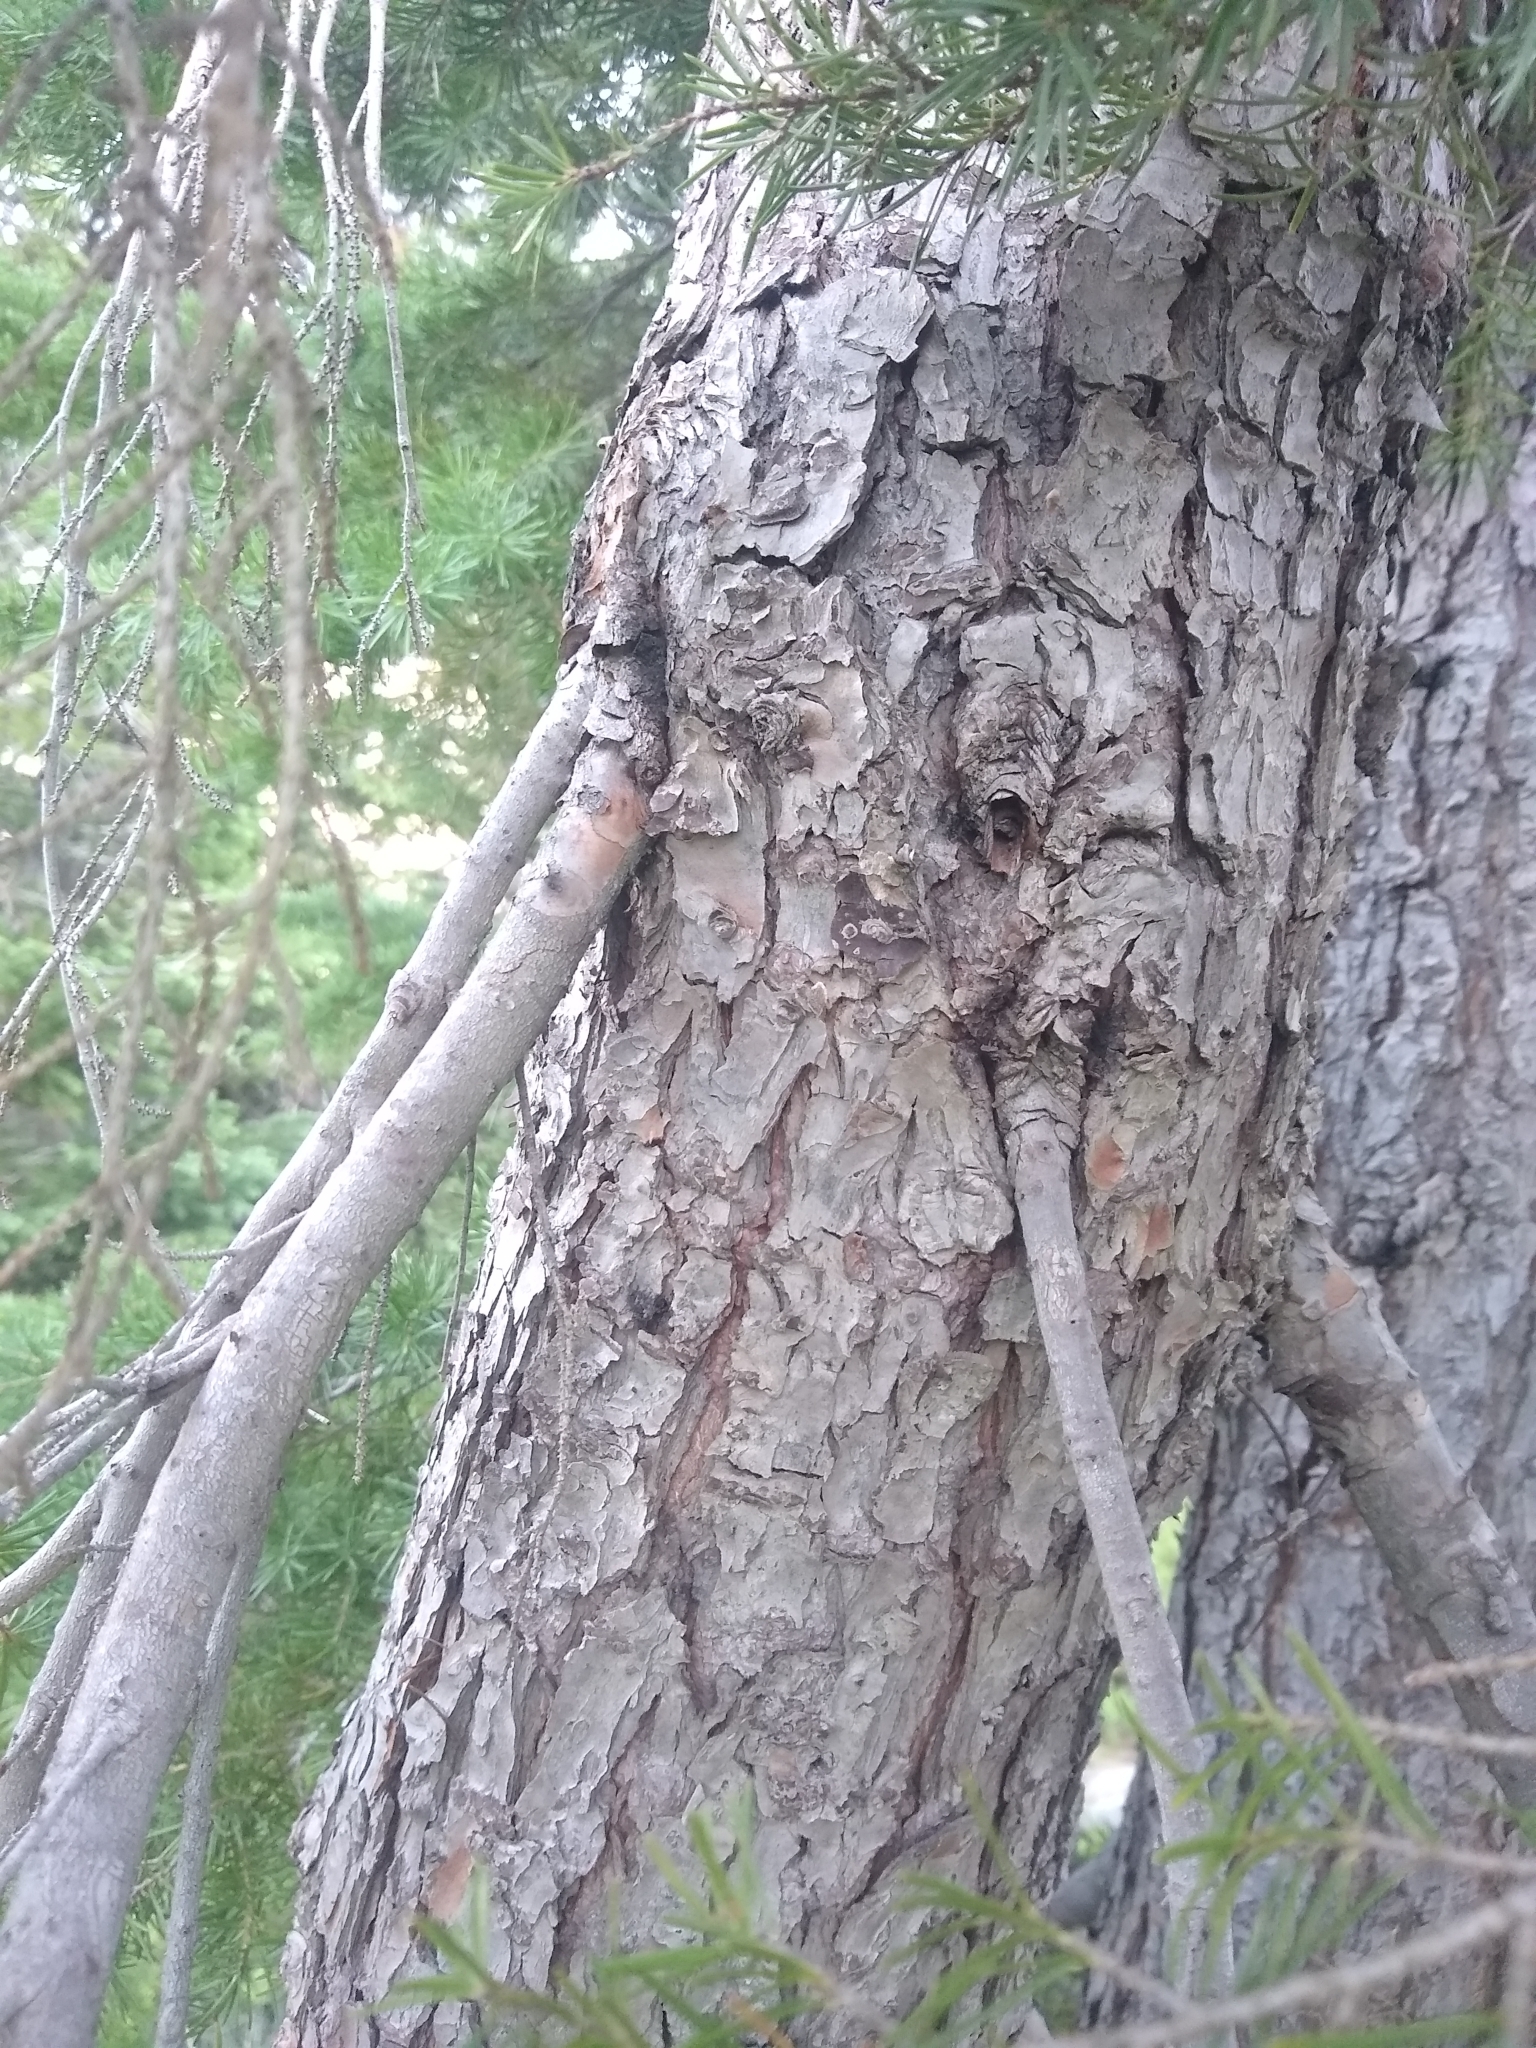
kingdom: Plantae
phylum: Tracheophyta
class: Pinopsida
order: Pinales
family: Pinaceae
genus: Tsuga
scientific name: Tsuga mertensiana
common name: Mountain hemlock
